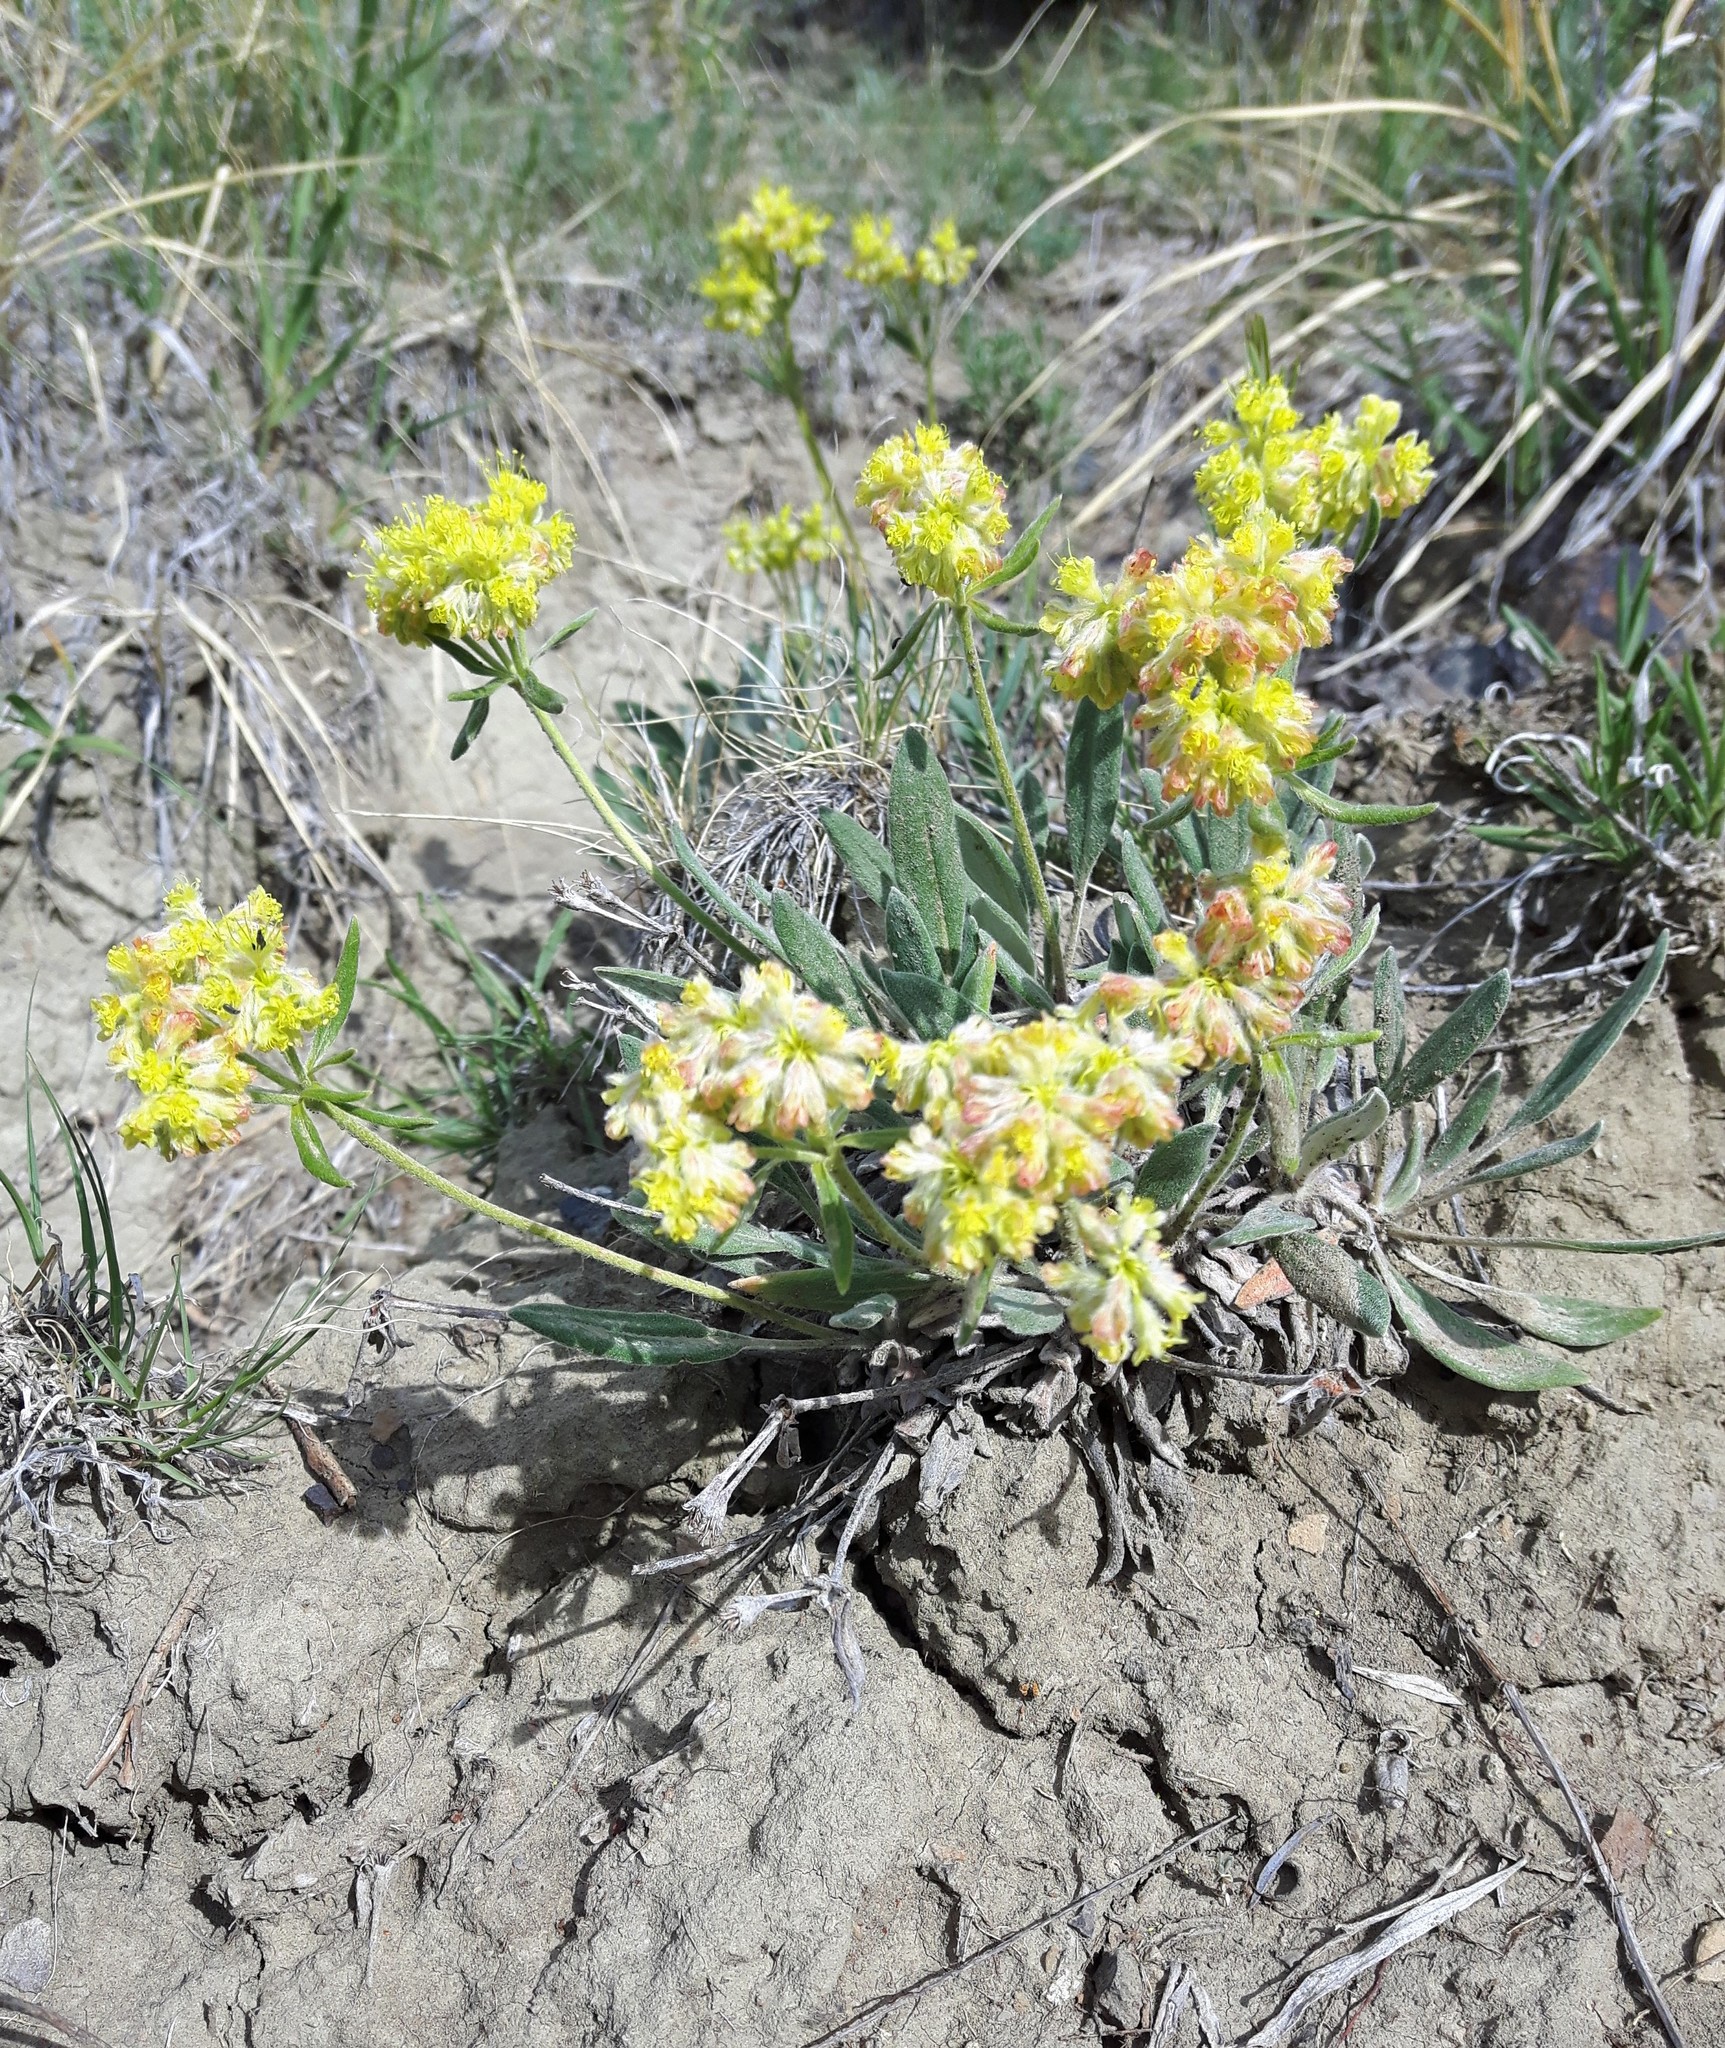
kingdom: Plantae
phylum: Tracheophyta
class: Magnoliopsida
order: Caryophyllales
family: Polygonaceae
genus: Eriogonum
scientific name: Eriogonum flavum
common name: Alpine golden wild buckwheat
